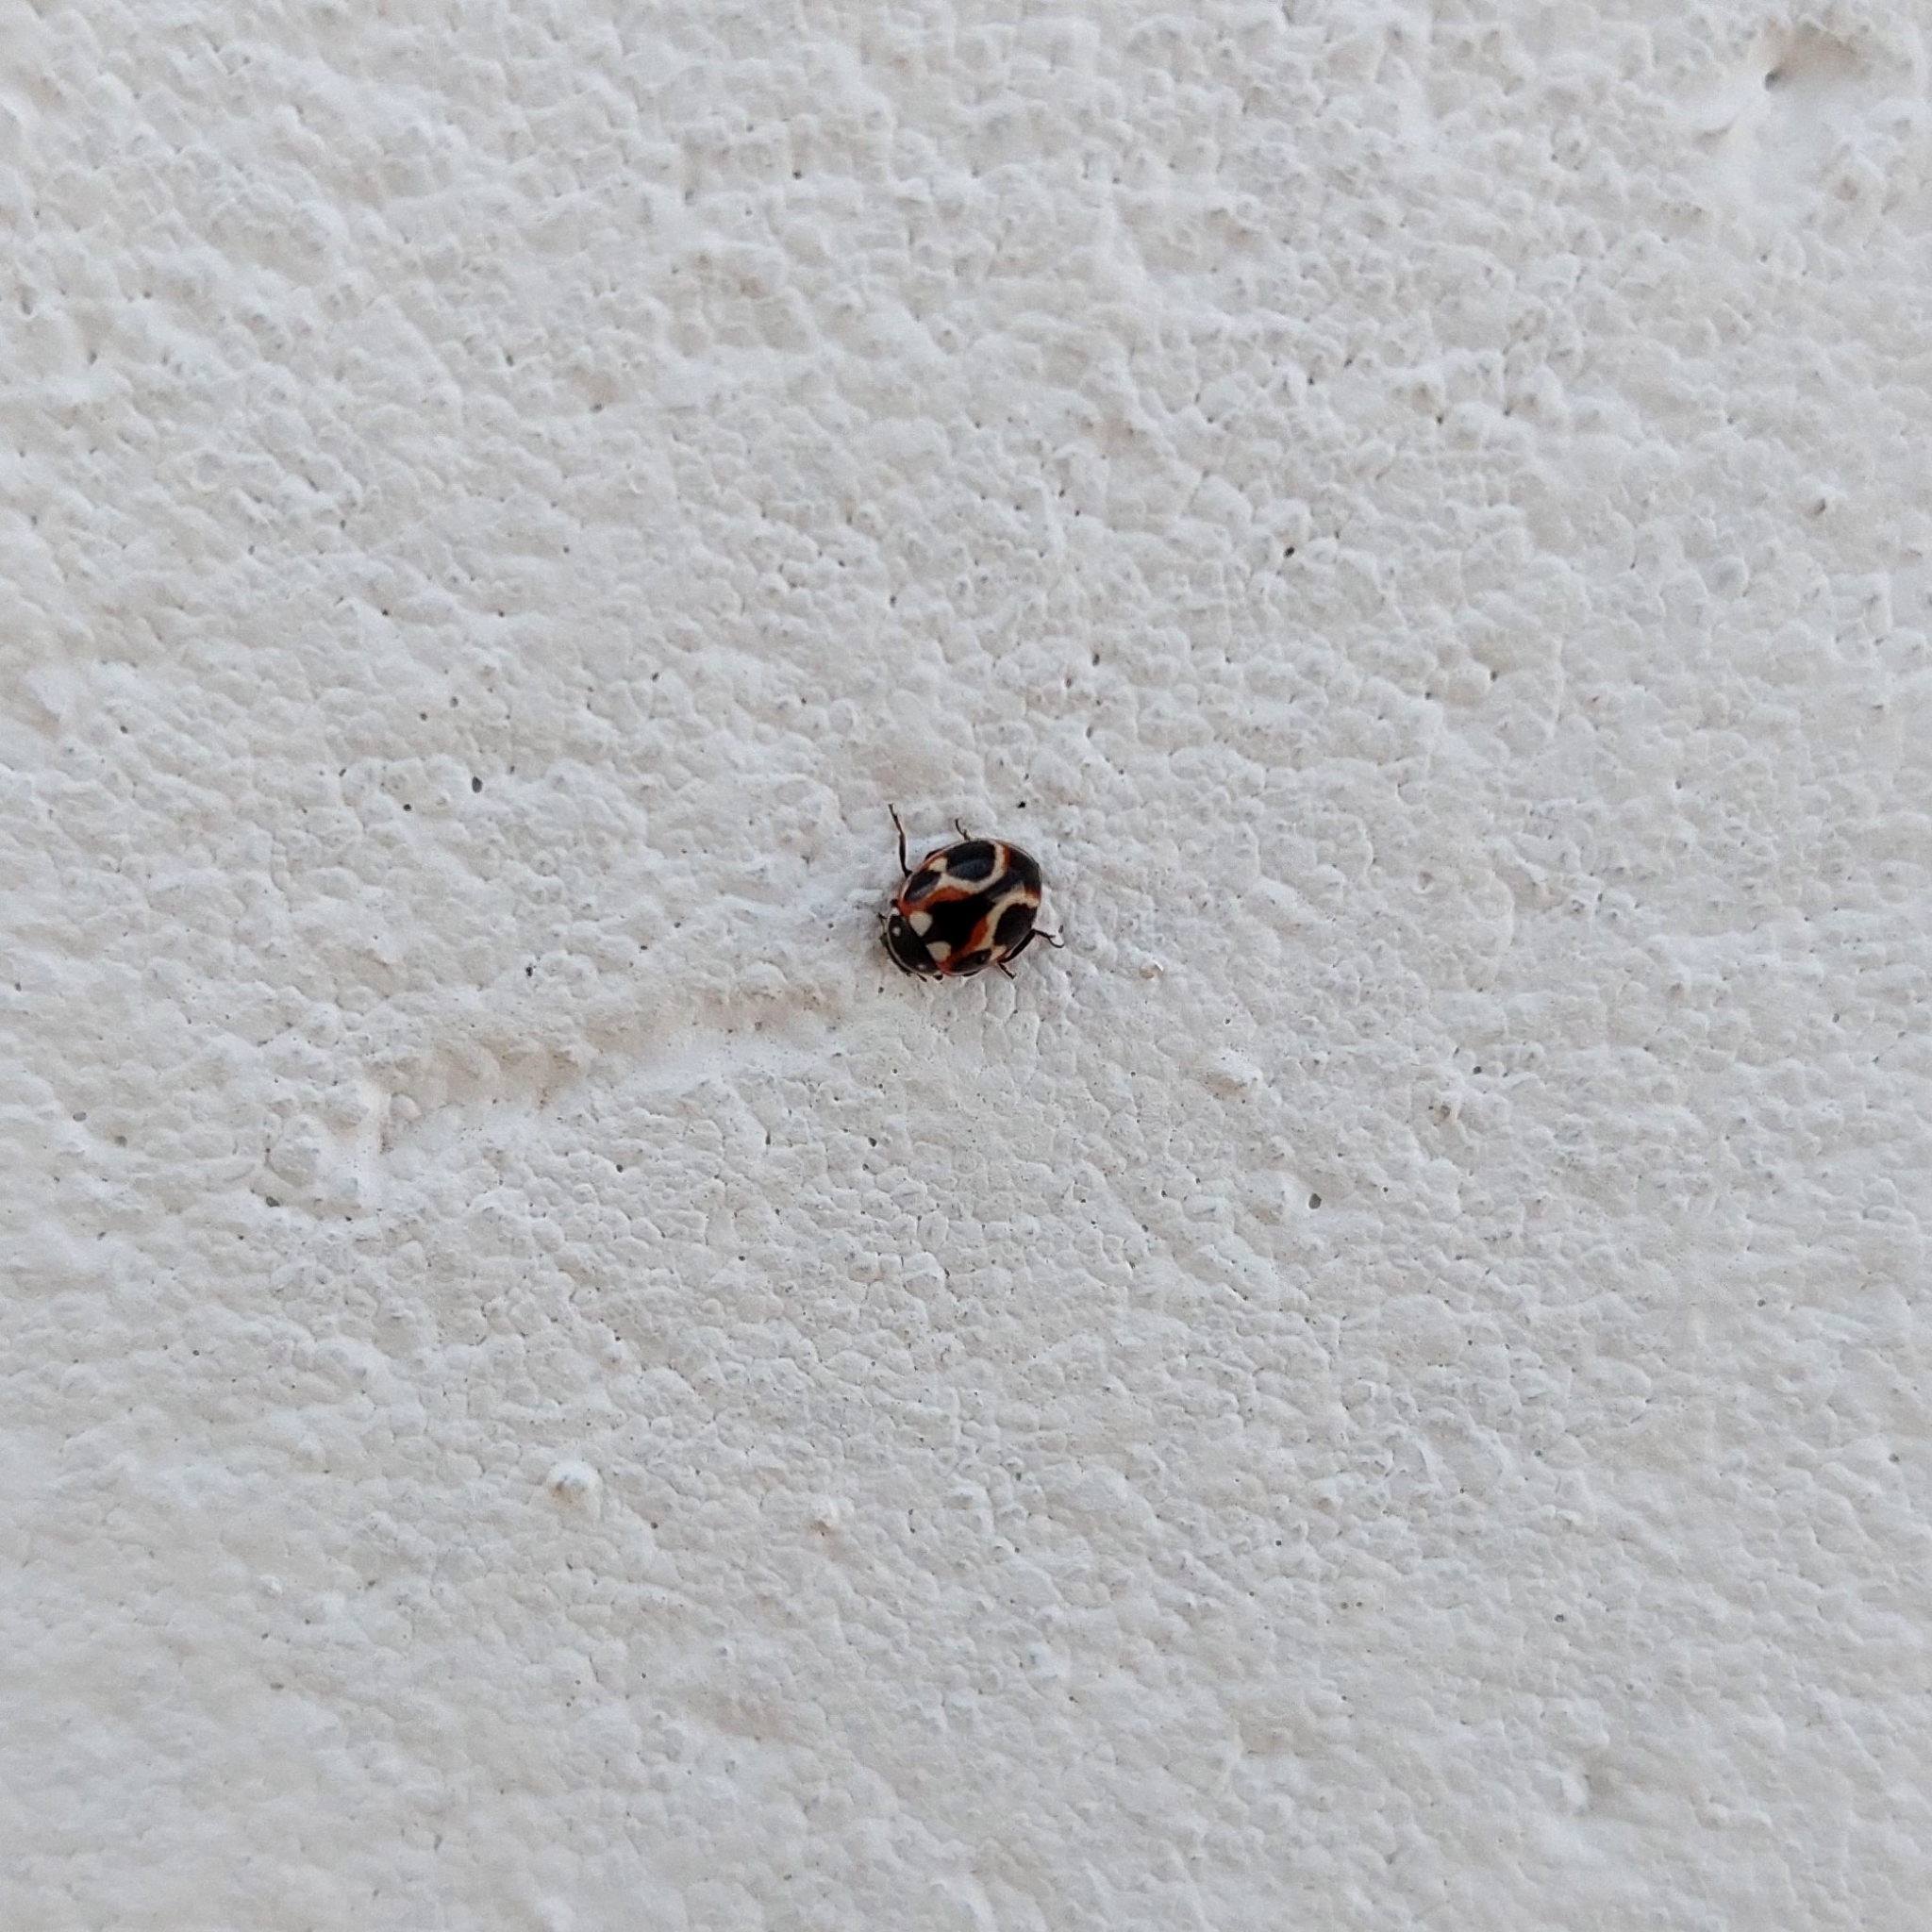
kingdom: Animalia
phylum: Arthropoda
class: Insecta
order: Coleoptera
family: Coccinellidae
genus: Cycloneda
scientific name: Cycloneda ancoralis
